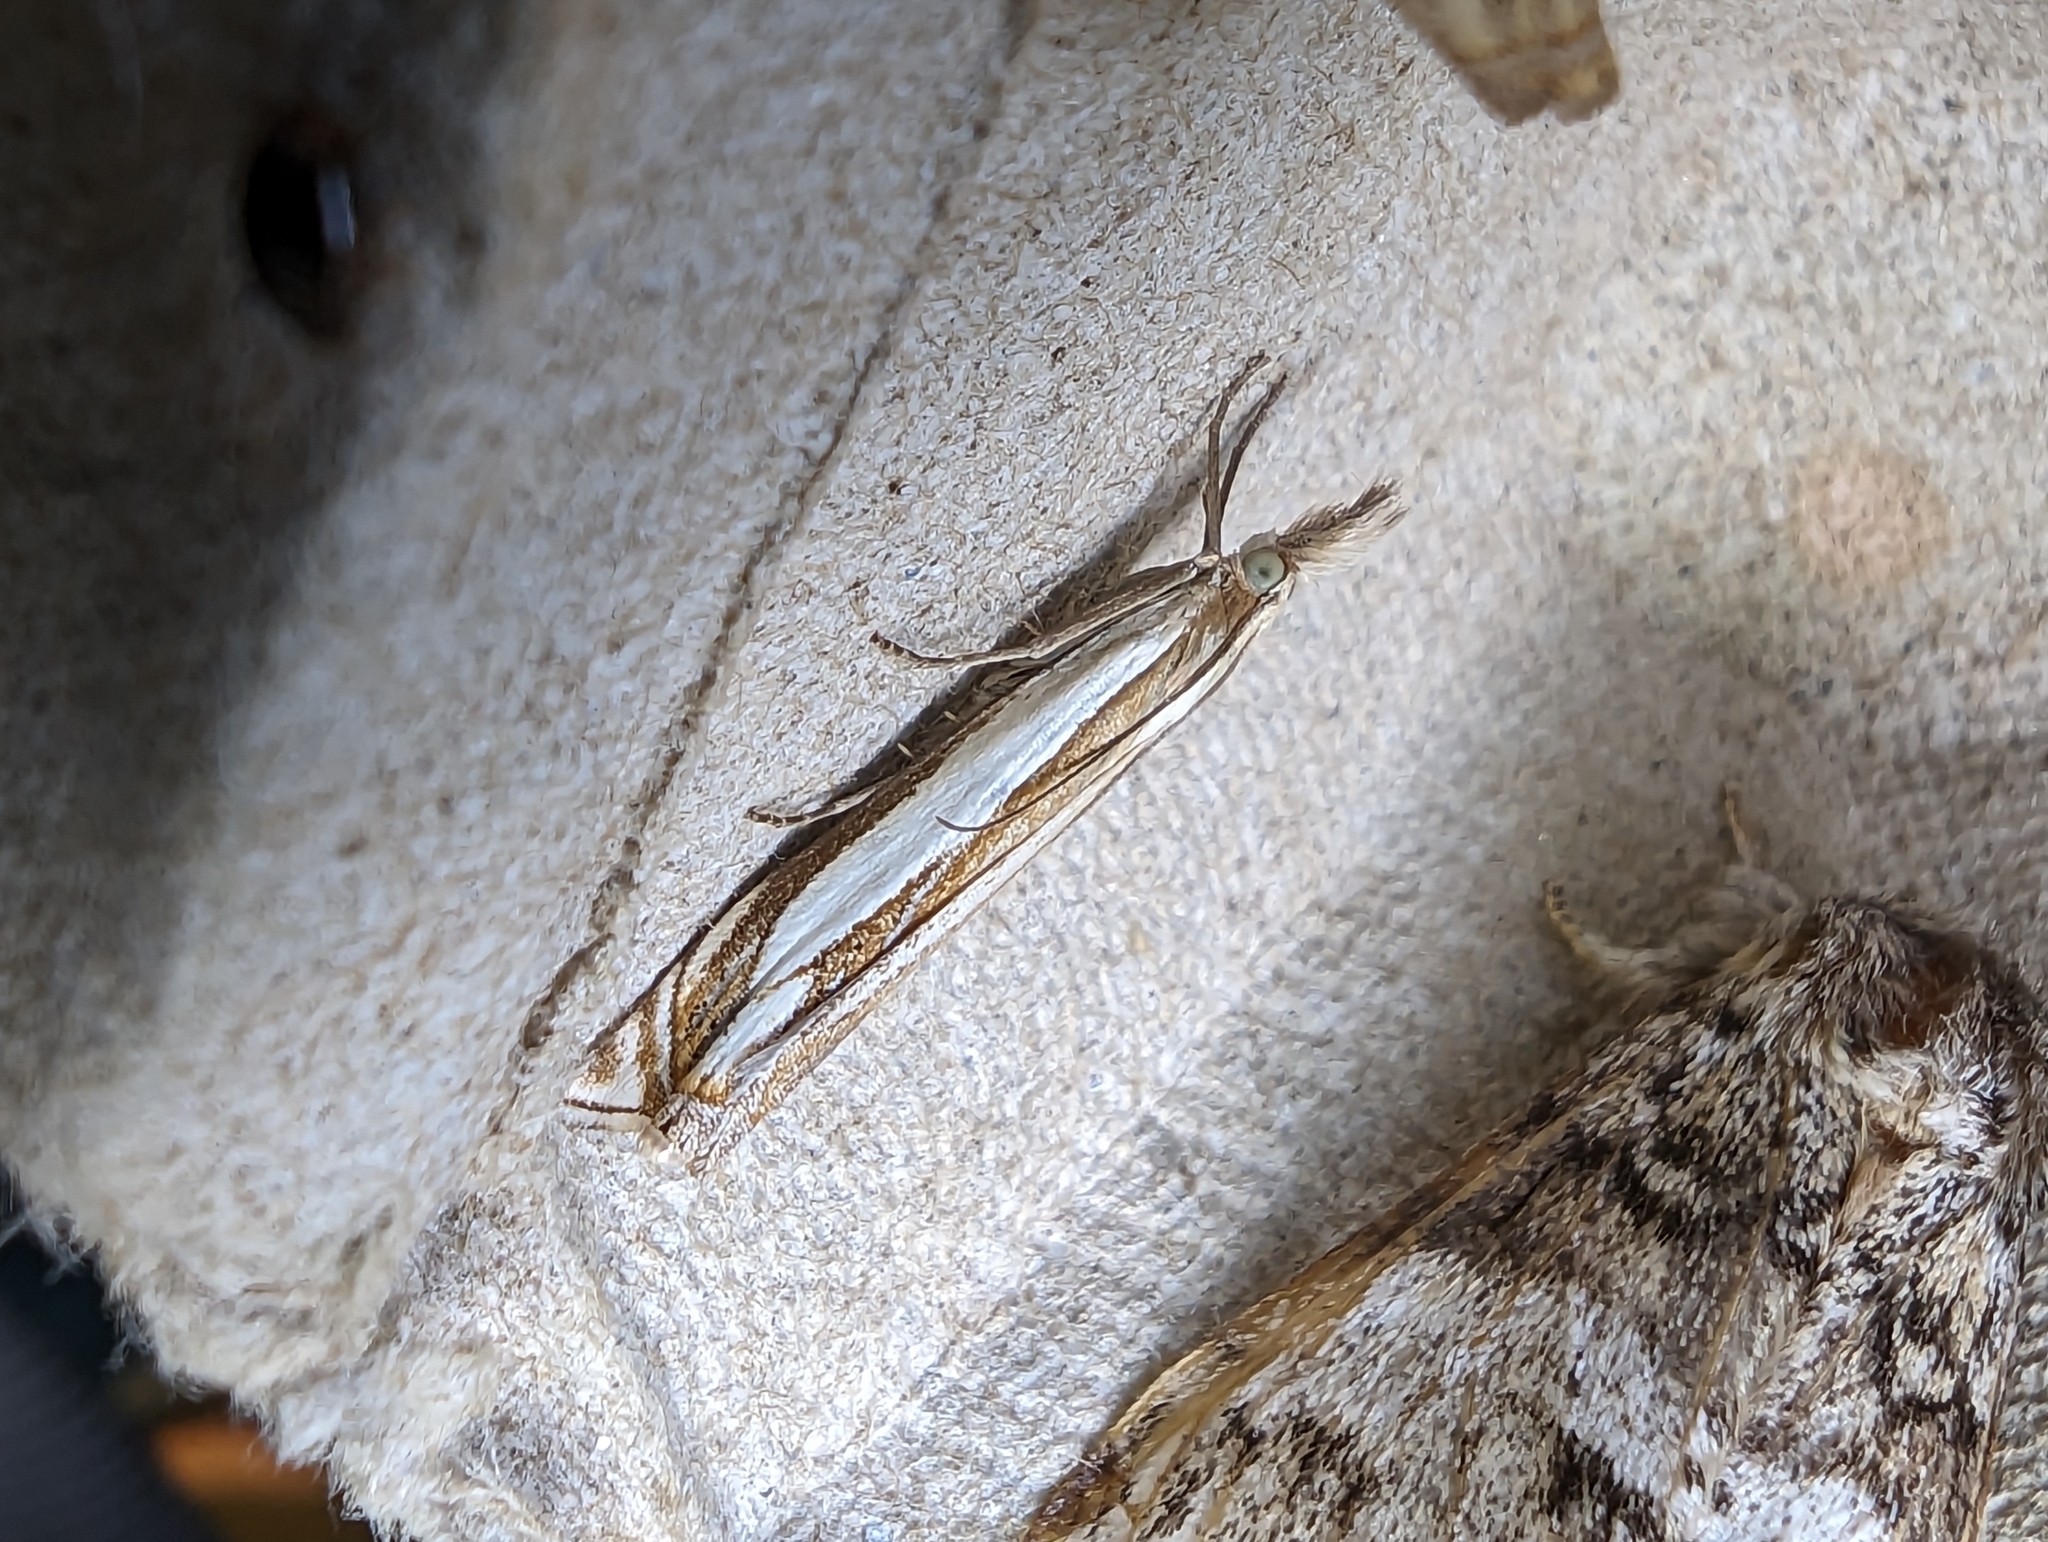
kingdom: Animalia
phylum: Arthropoda
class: Insecta
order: Lepidoptera
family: Crambidae
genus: Crambus
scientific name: Crambus pascuella
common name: Inlaid grass-veneer
